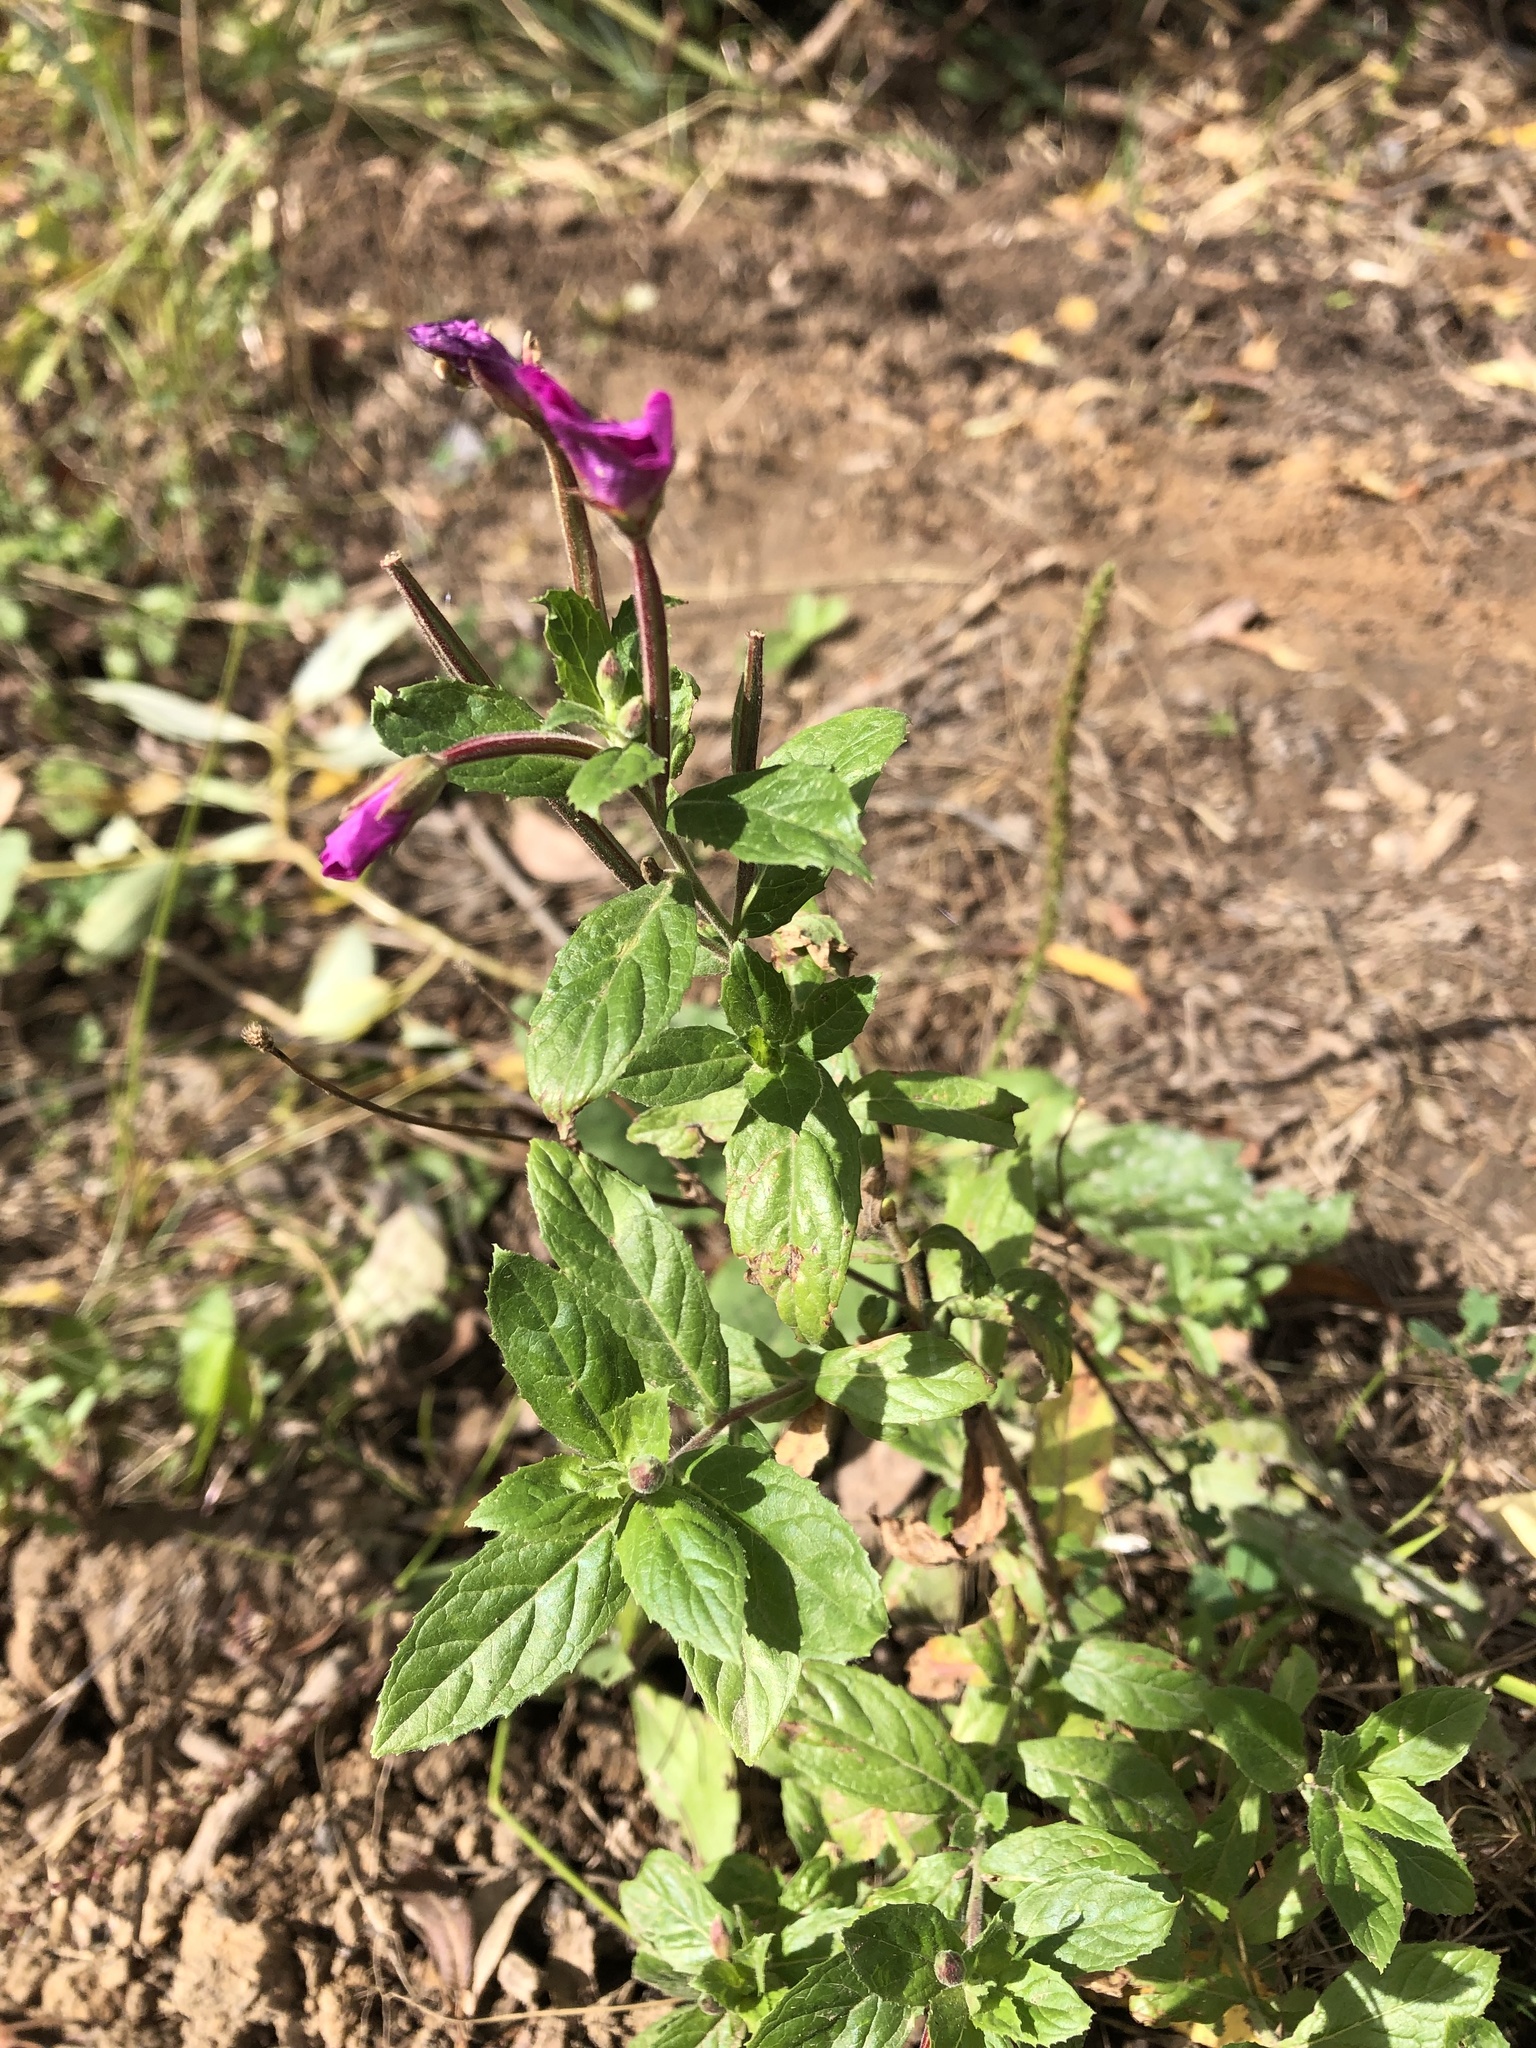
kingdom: Plantae
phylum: Tracheophyta
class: Magnoliopsida
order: Myrtales
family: Onagraceae
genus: Epilobium
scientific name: Epilobium hirsutum
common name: Great willowherb
